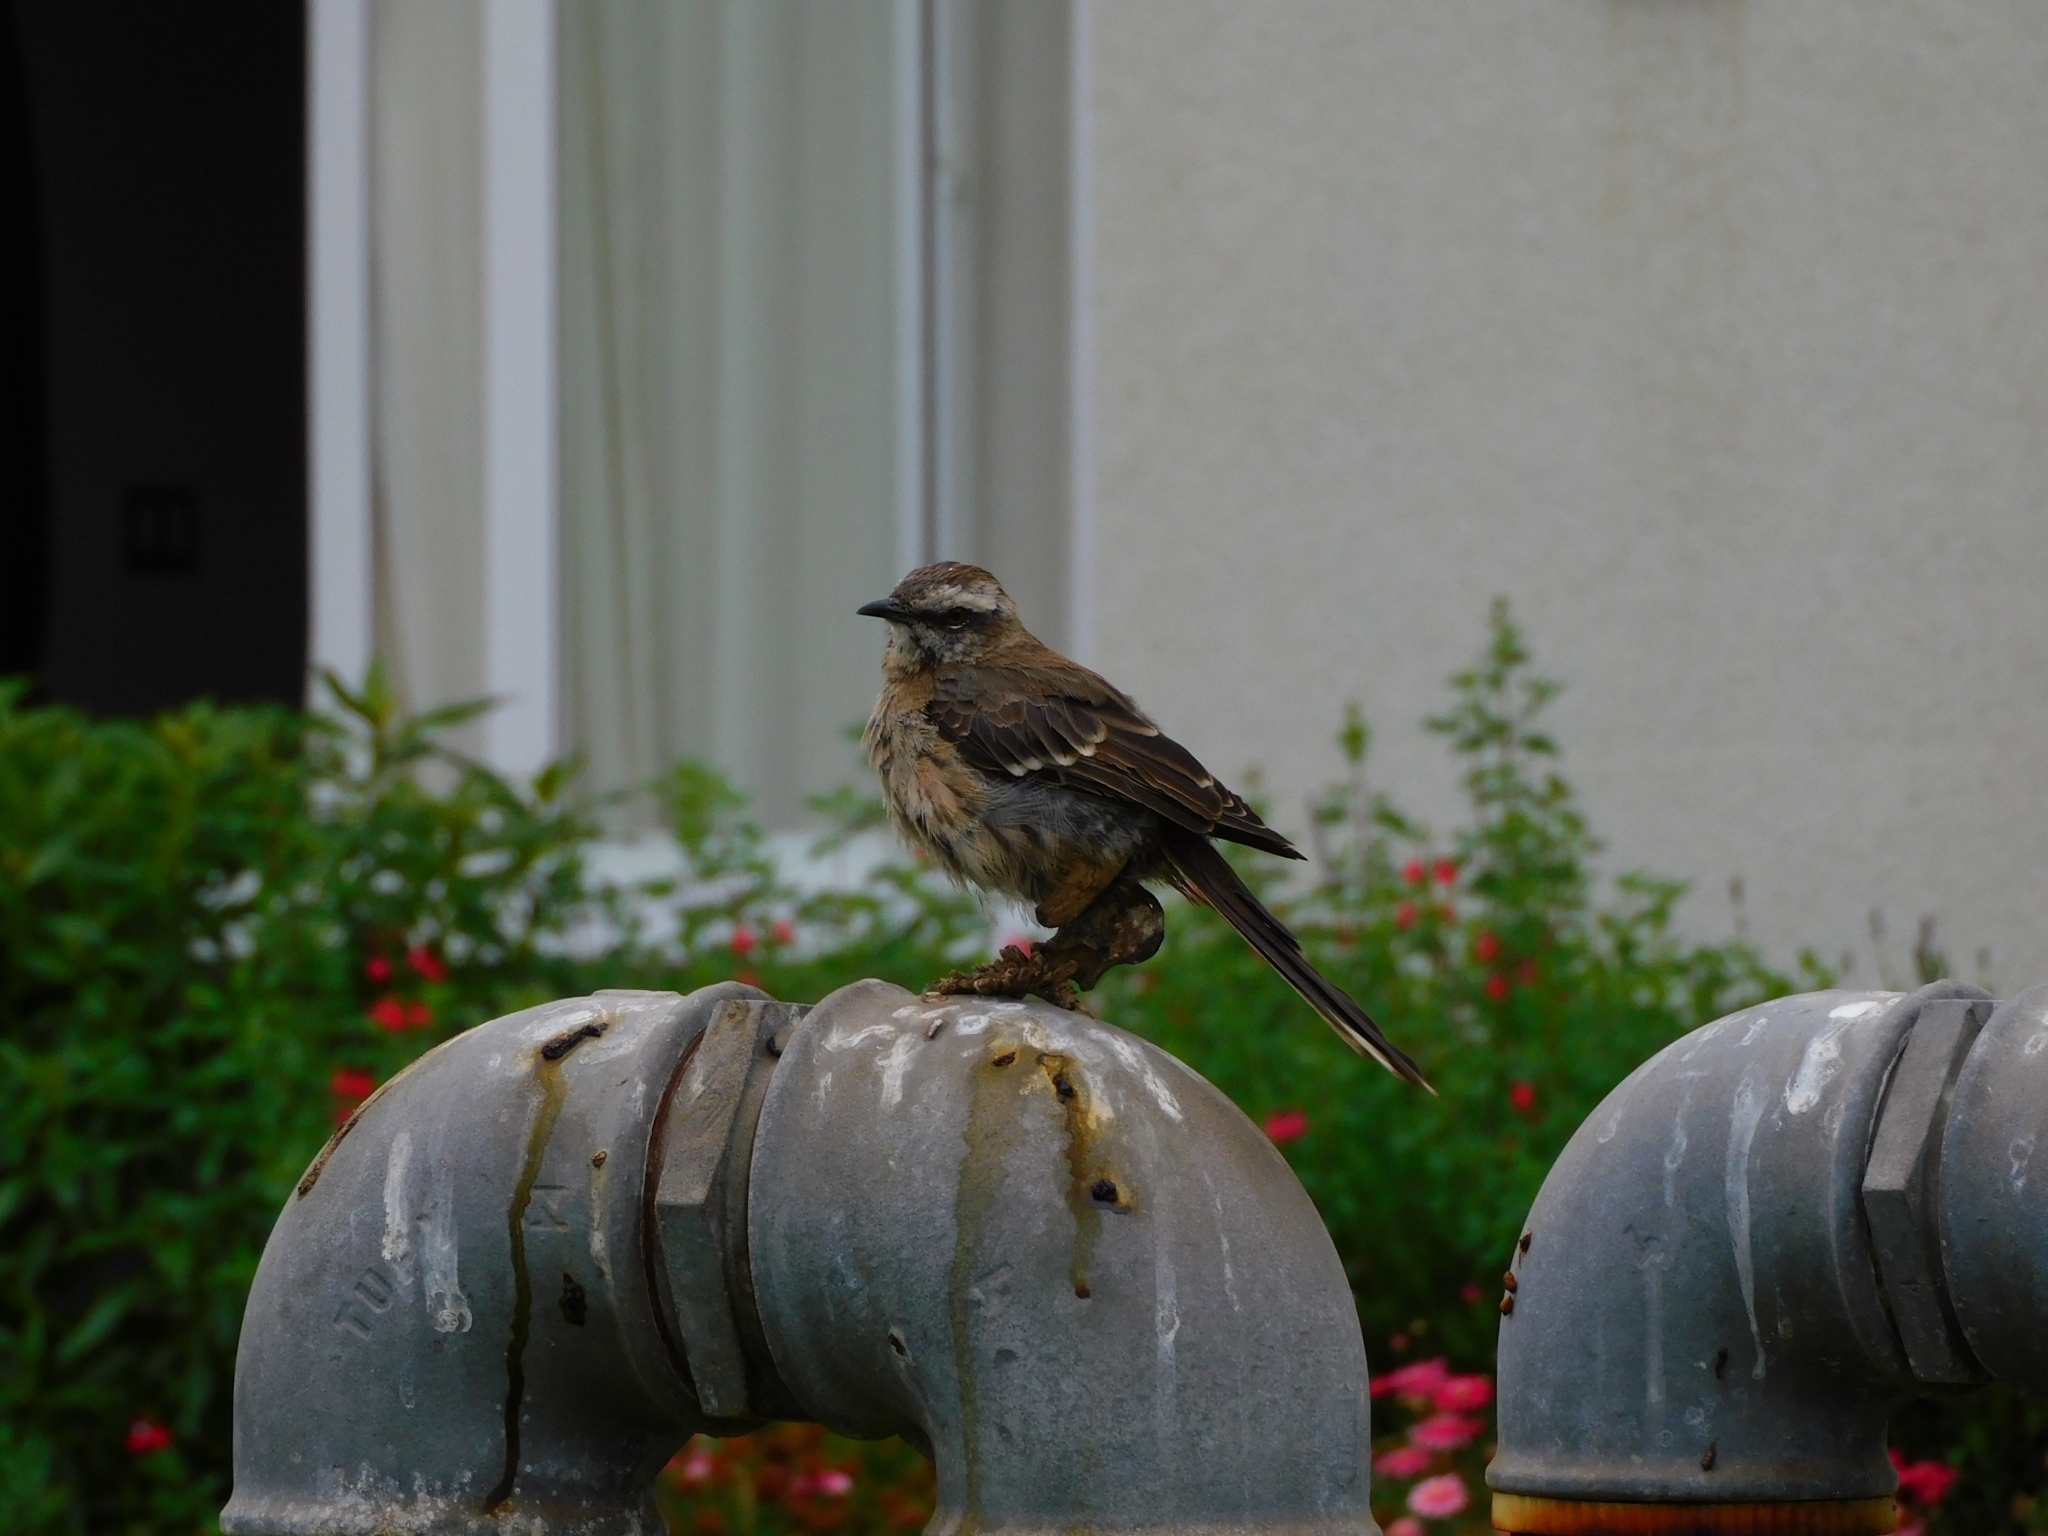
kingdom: Animalia
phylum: Chordata
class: Aves
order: Passeriformes
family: Mimidae
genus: Mimus
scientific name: Mimus thenca
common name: Chilean mockingbird
